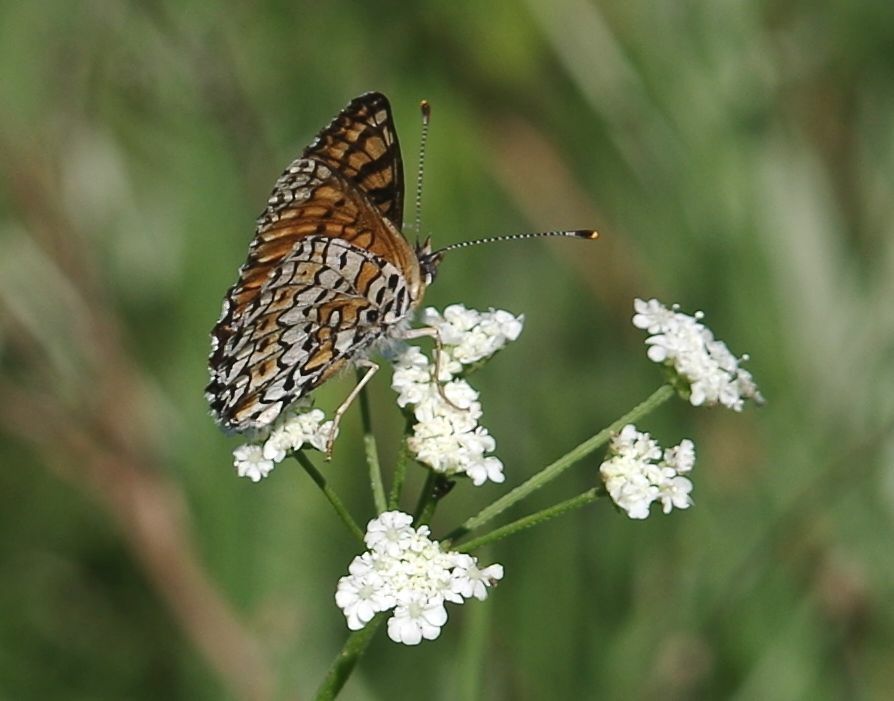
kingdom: Animalia
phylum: Arthropoda
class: Insecta
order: Lepidoptera
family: Nymphalidae
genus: Melitaea
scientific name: Melitaea cinxia
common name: Glanville fritillary
